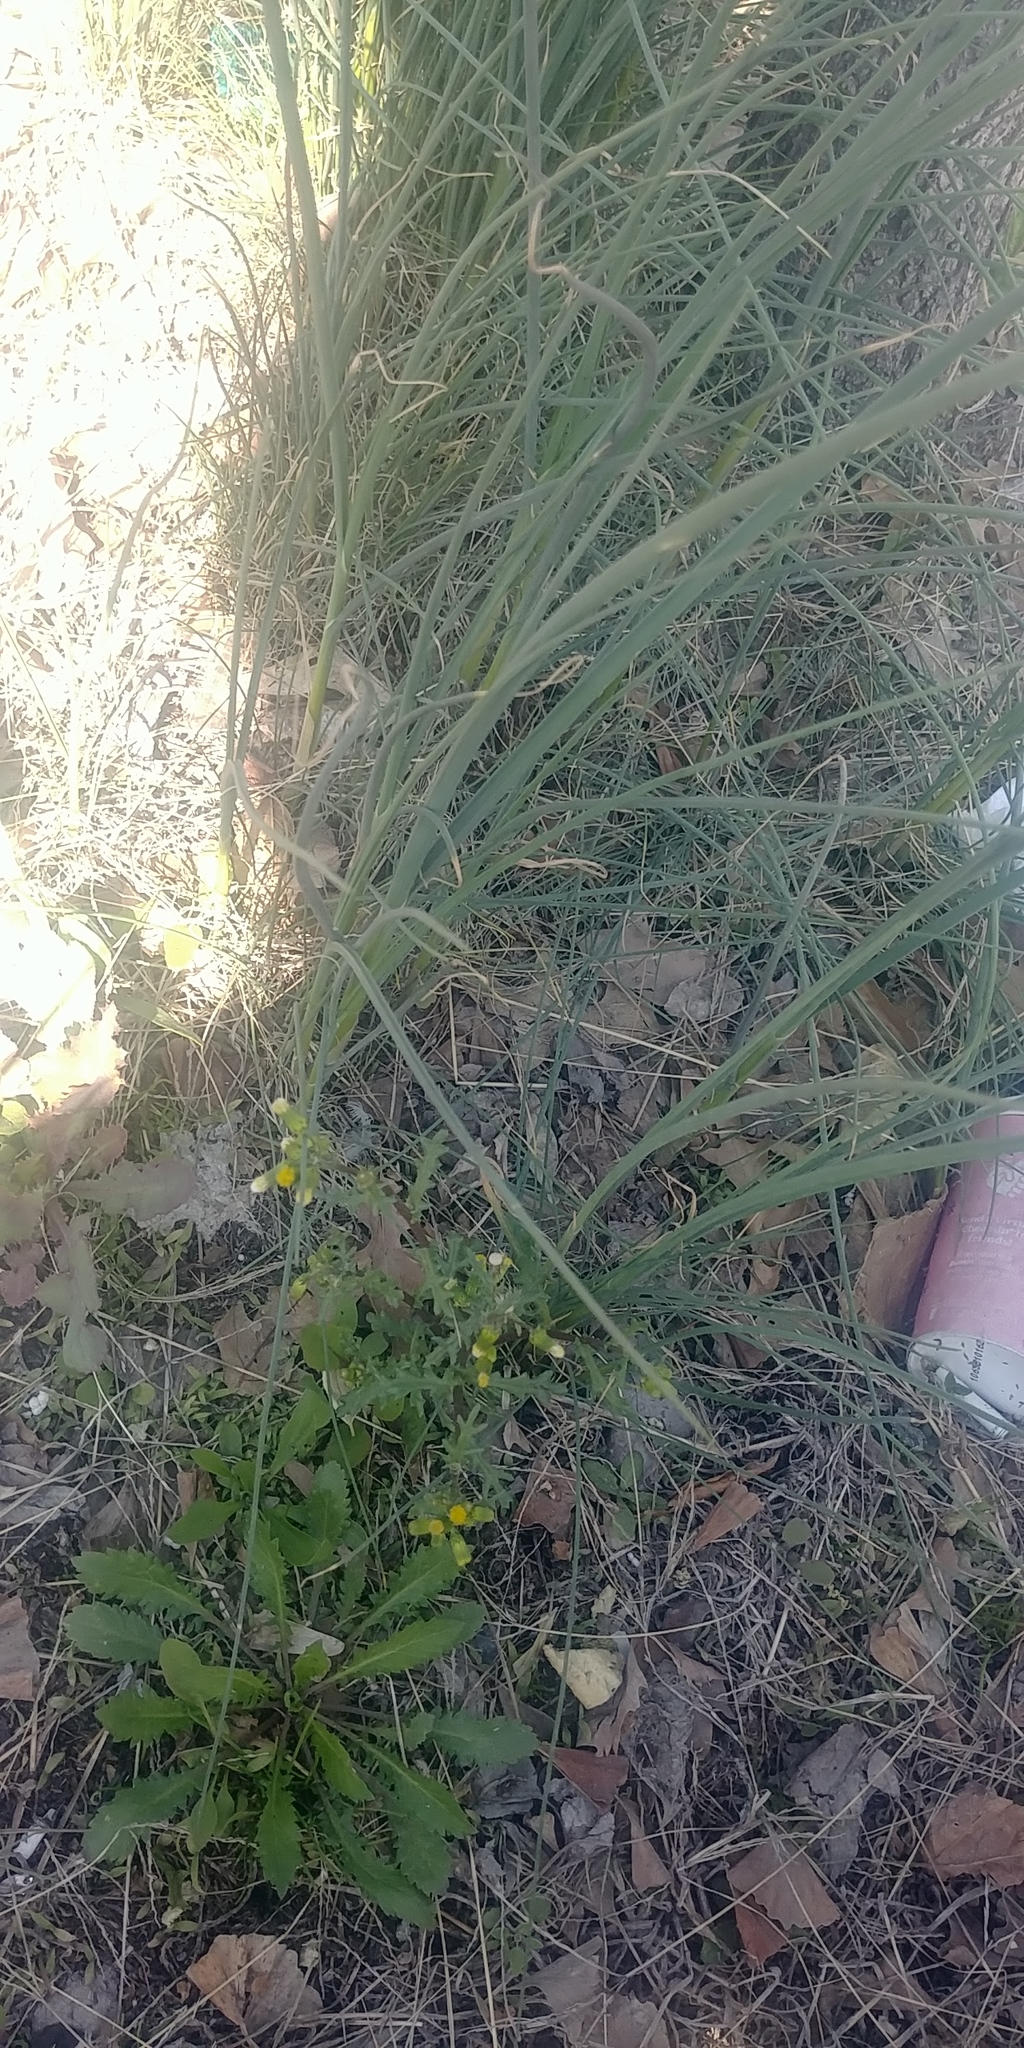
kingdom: Plantae
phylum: Tracheophyta
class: Liliopsida
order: Asparagales
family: Amaryllidaceae
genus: Allium
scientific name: Allium vineale
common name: Crow garlic
